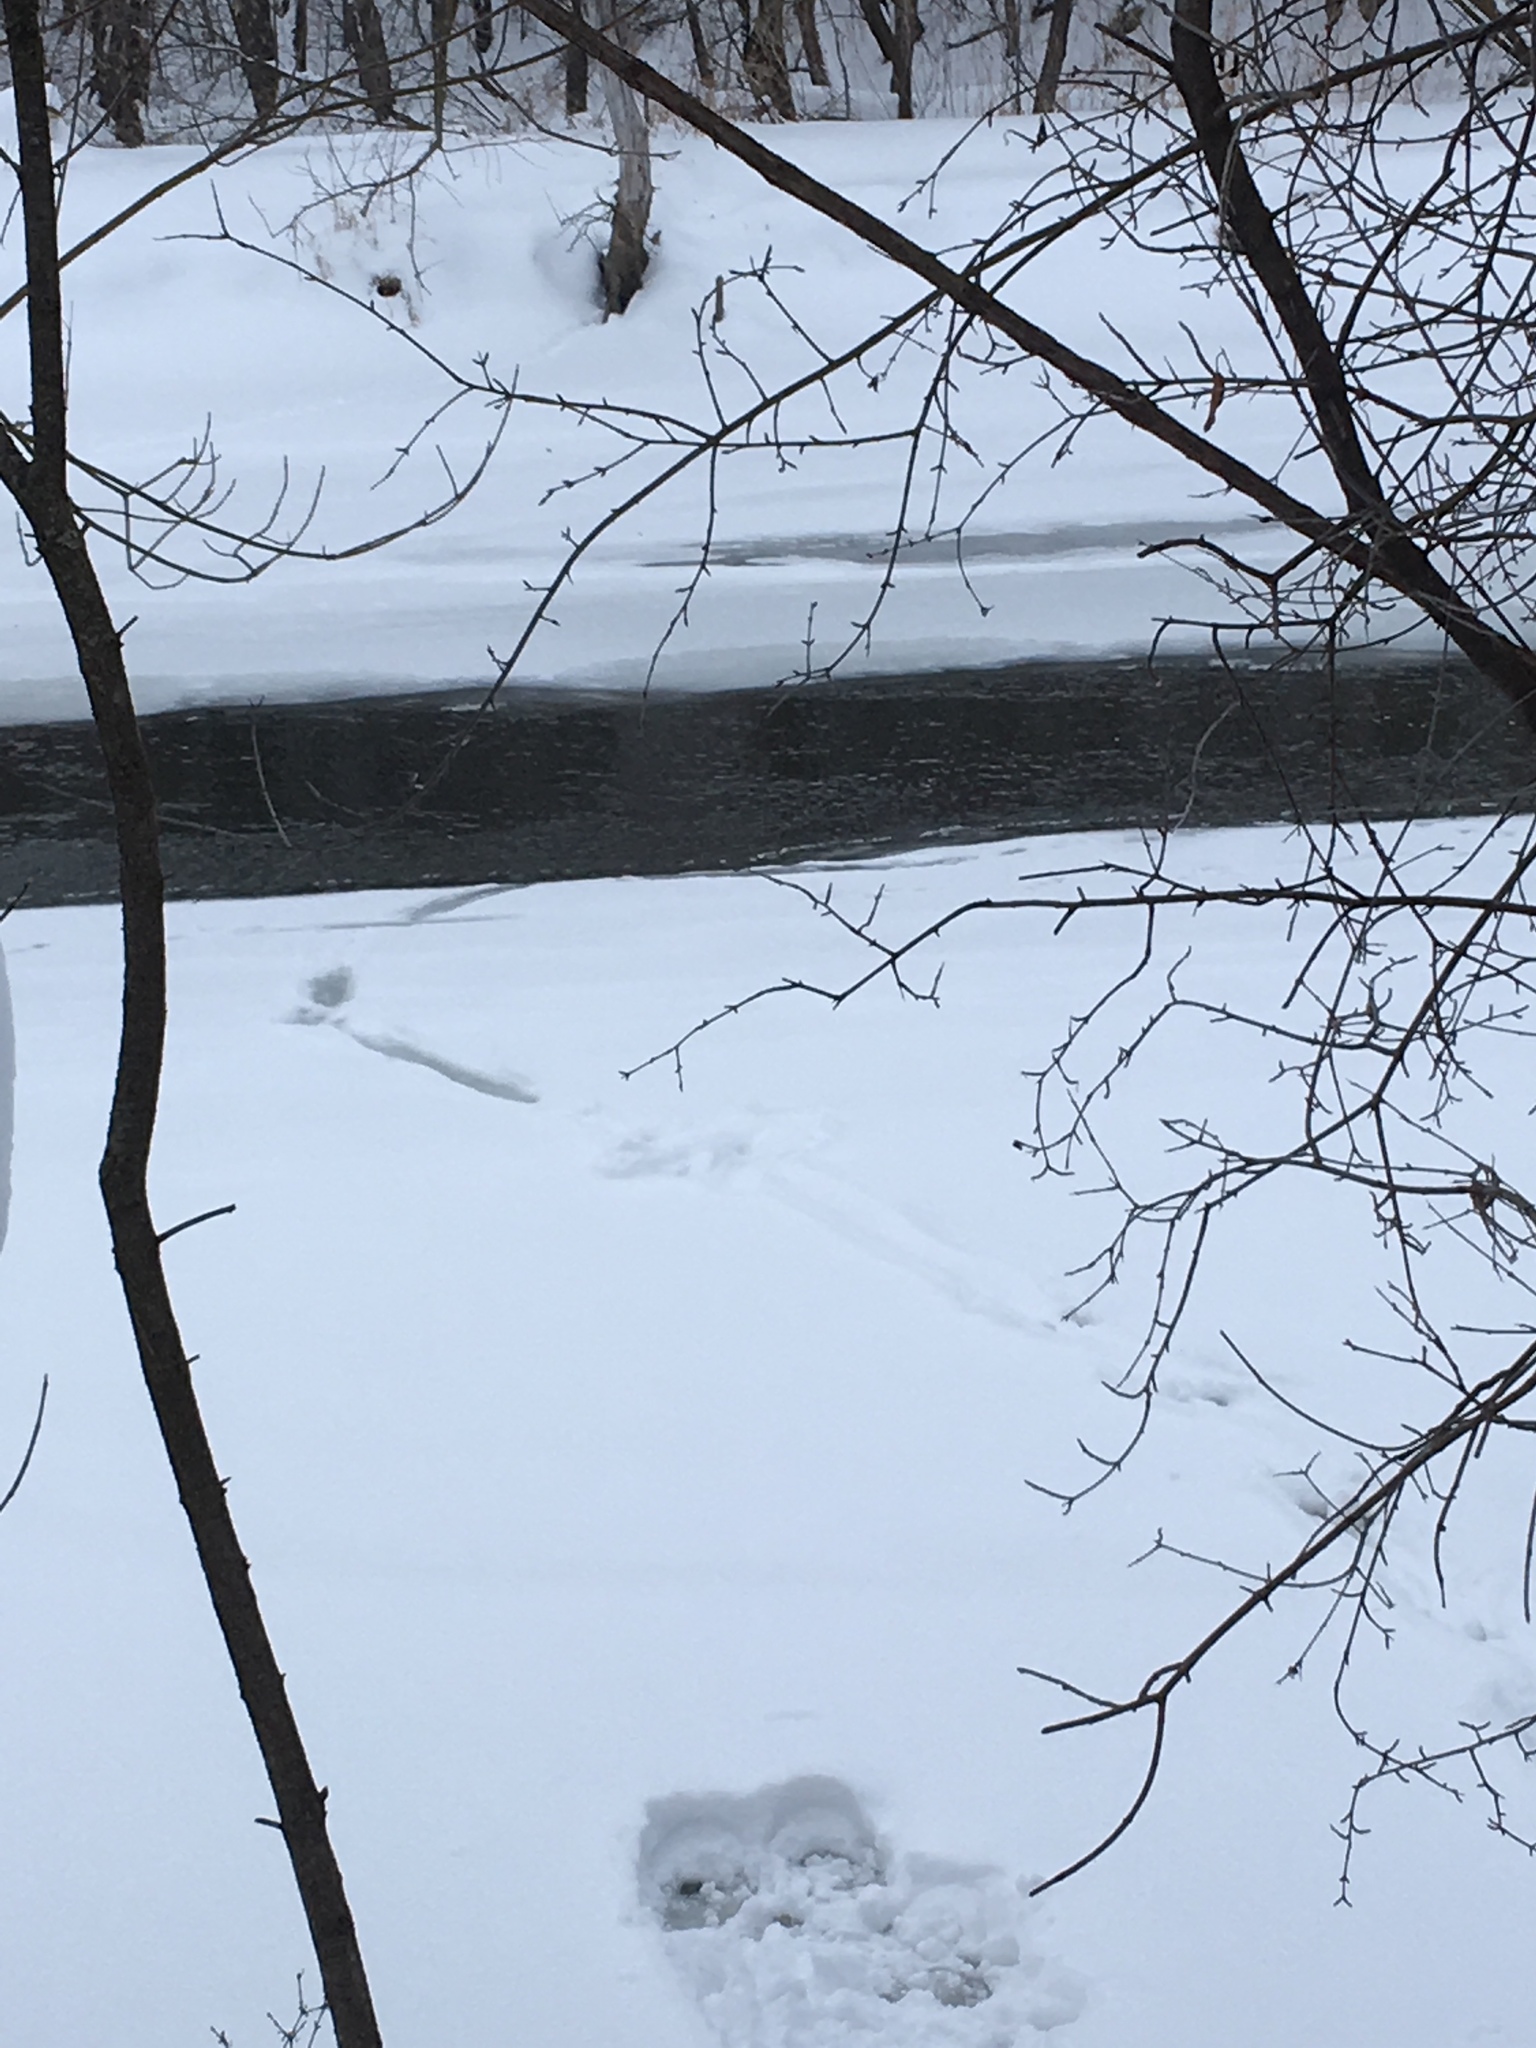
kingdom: Animalia
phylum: Chordata
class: Mammalia
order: Carnivora
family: Mustelidae
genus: Lontra
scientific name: Lontra canadensis
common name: North american river otter
